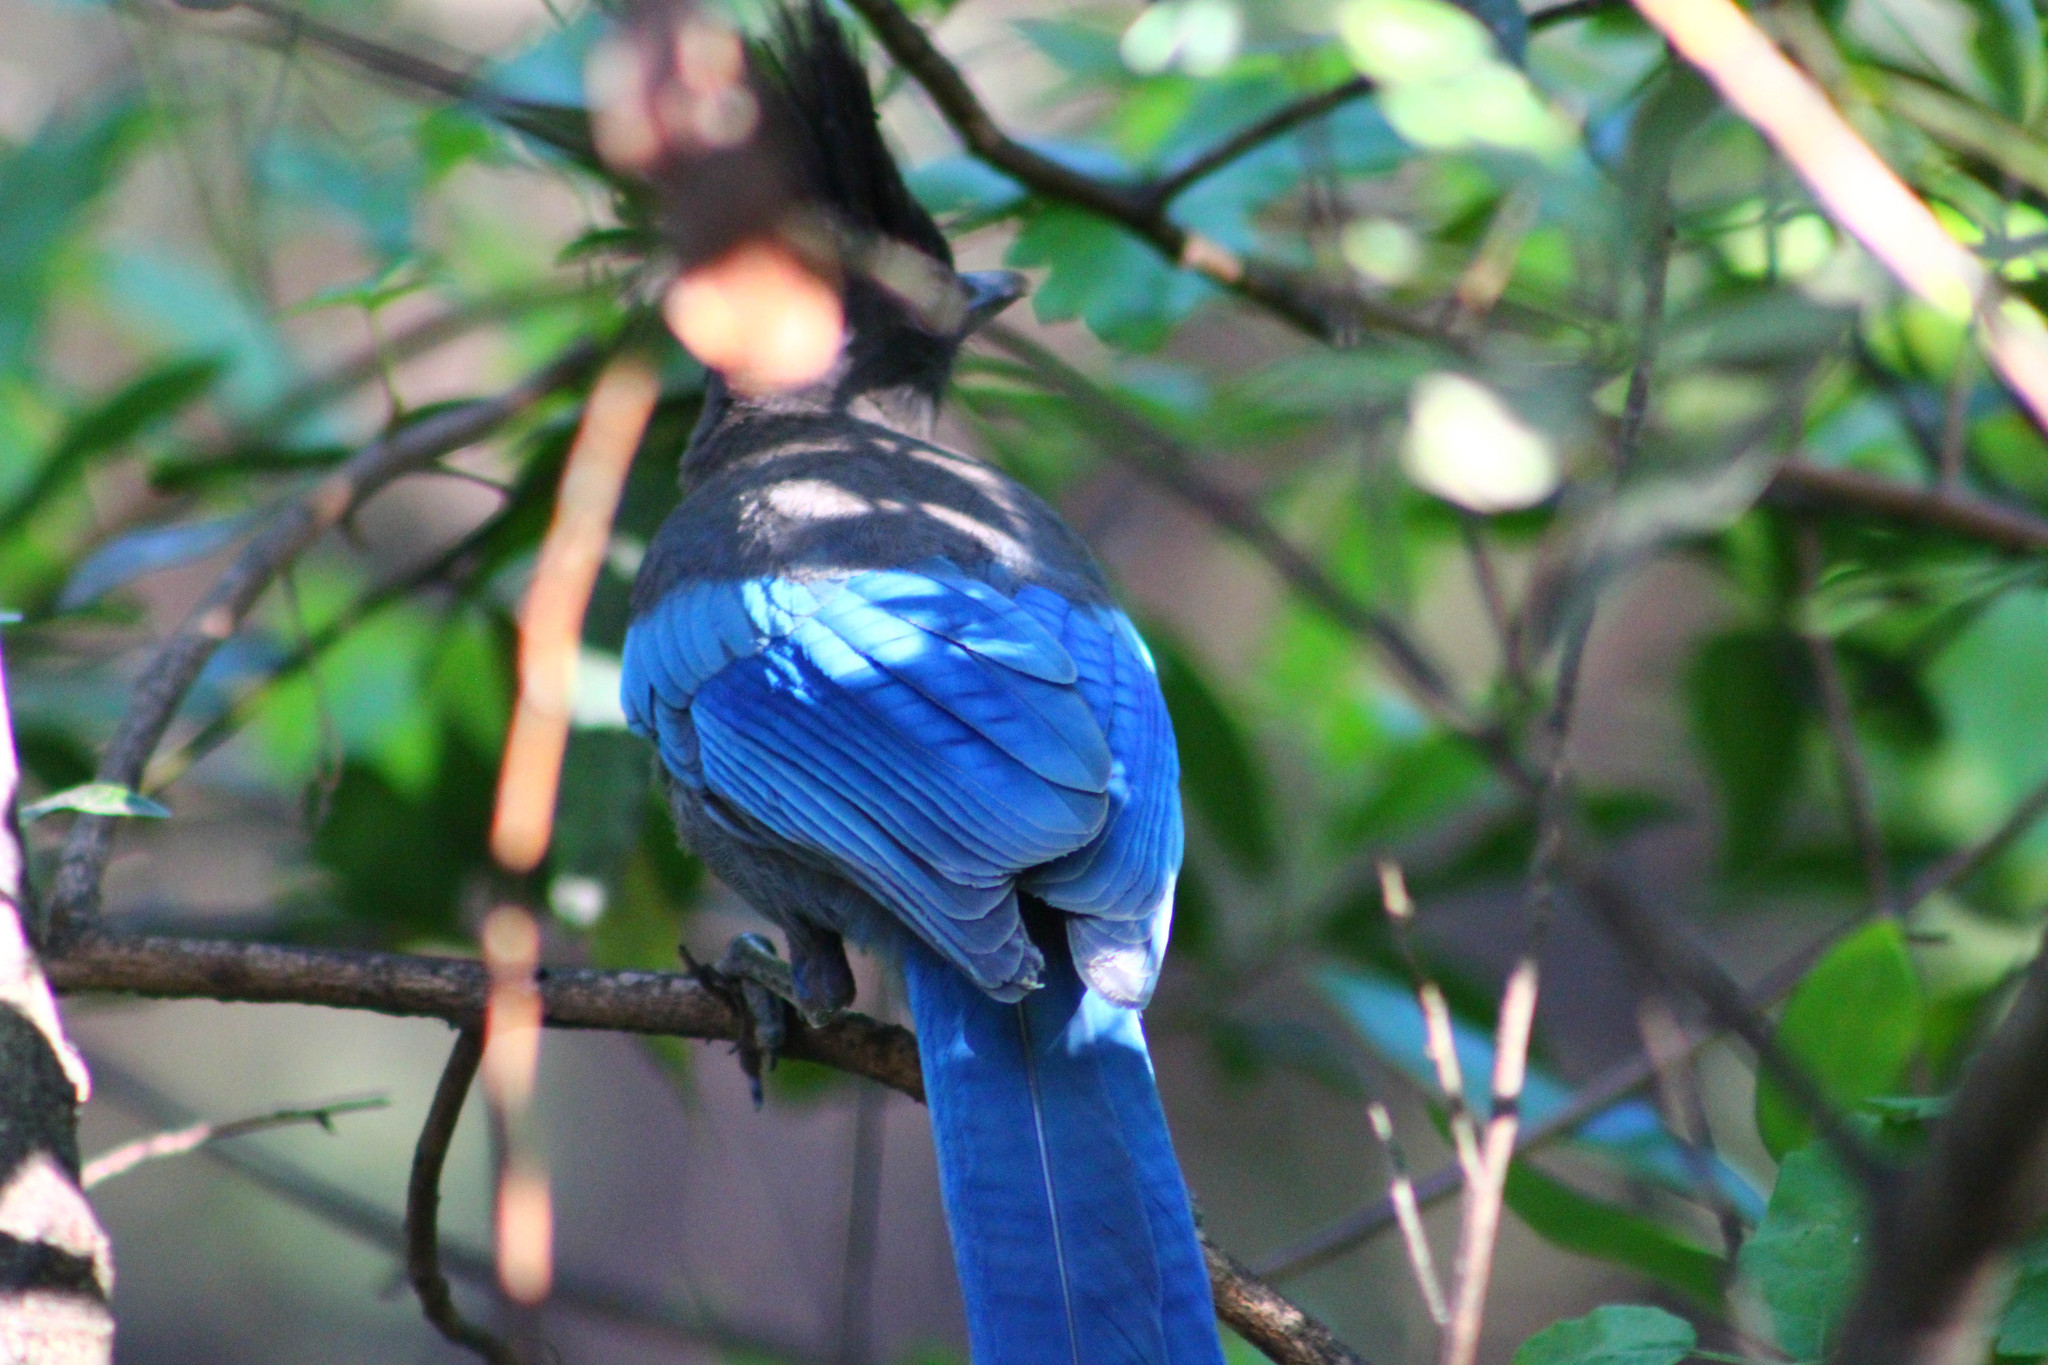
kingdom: Animalia
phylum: Chordata
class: Aves
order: Passeriformes
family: Corvidae
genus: Cyanocitta
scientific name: Cyanocitta stelleri
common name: Steller's jay
